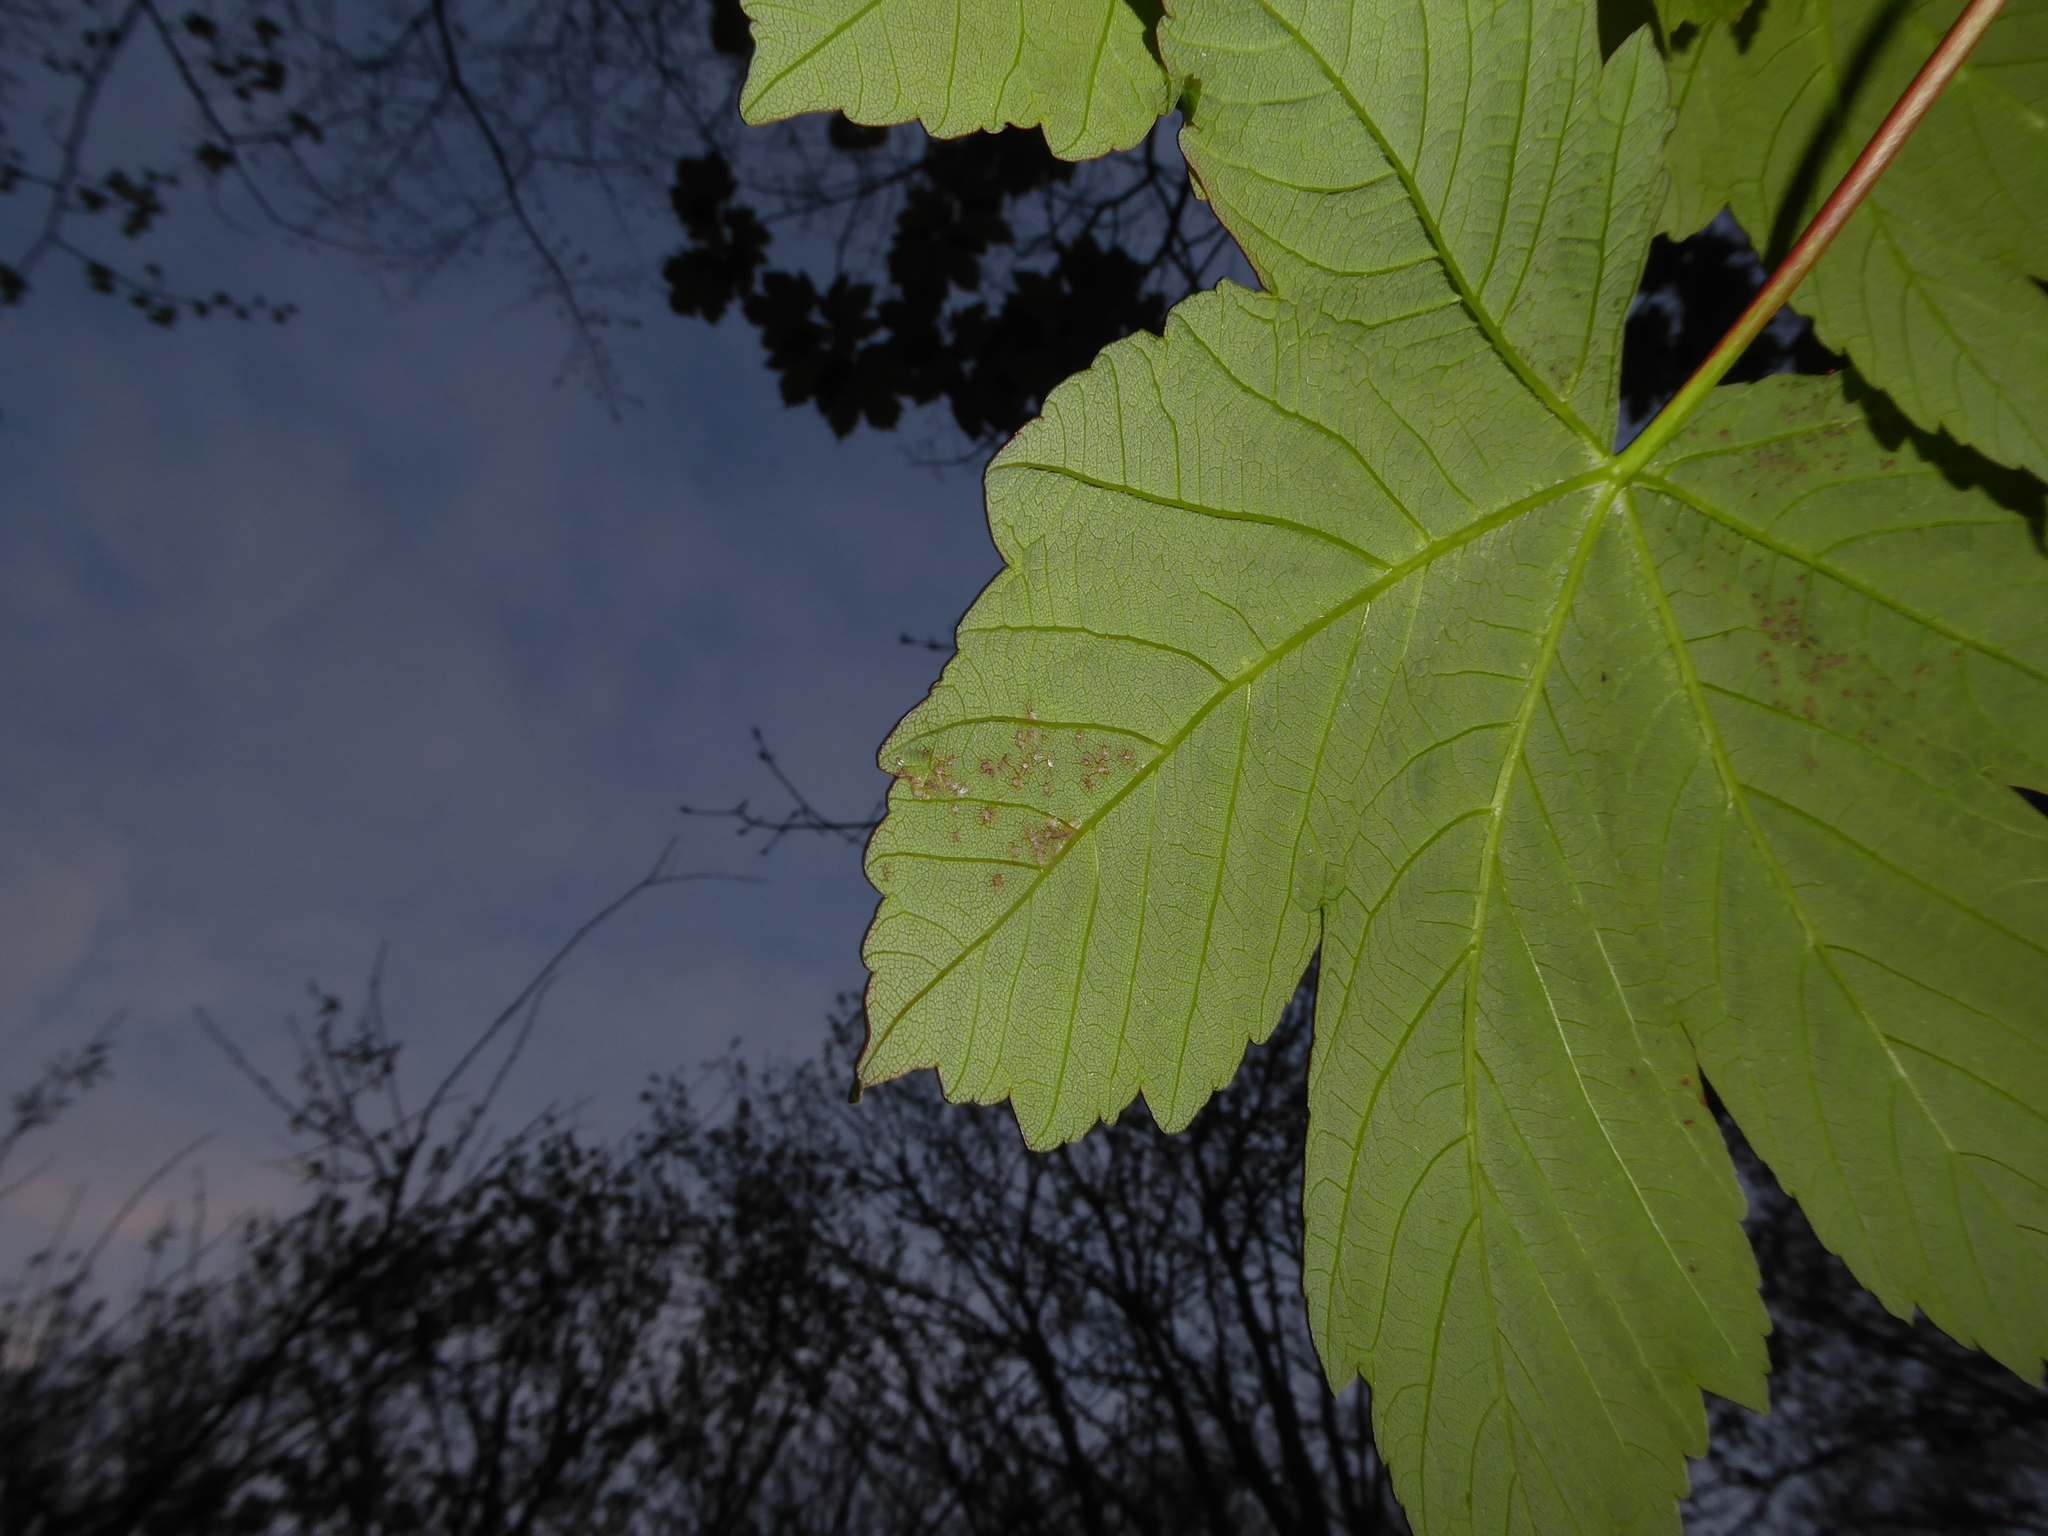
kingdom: Animalia
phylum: Arthropoda
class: Arachnida
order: Trombidiformes
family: Eriophyidae
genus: Aceria
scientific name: Aceria cephaloneus
